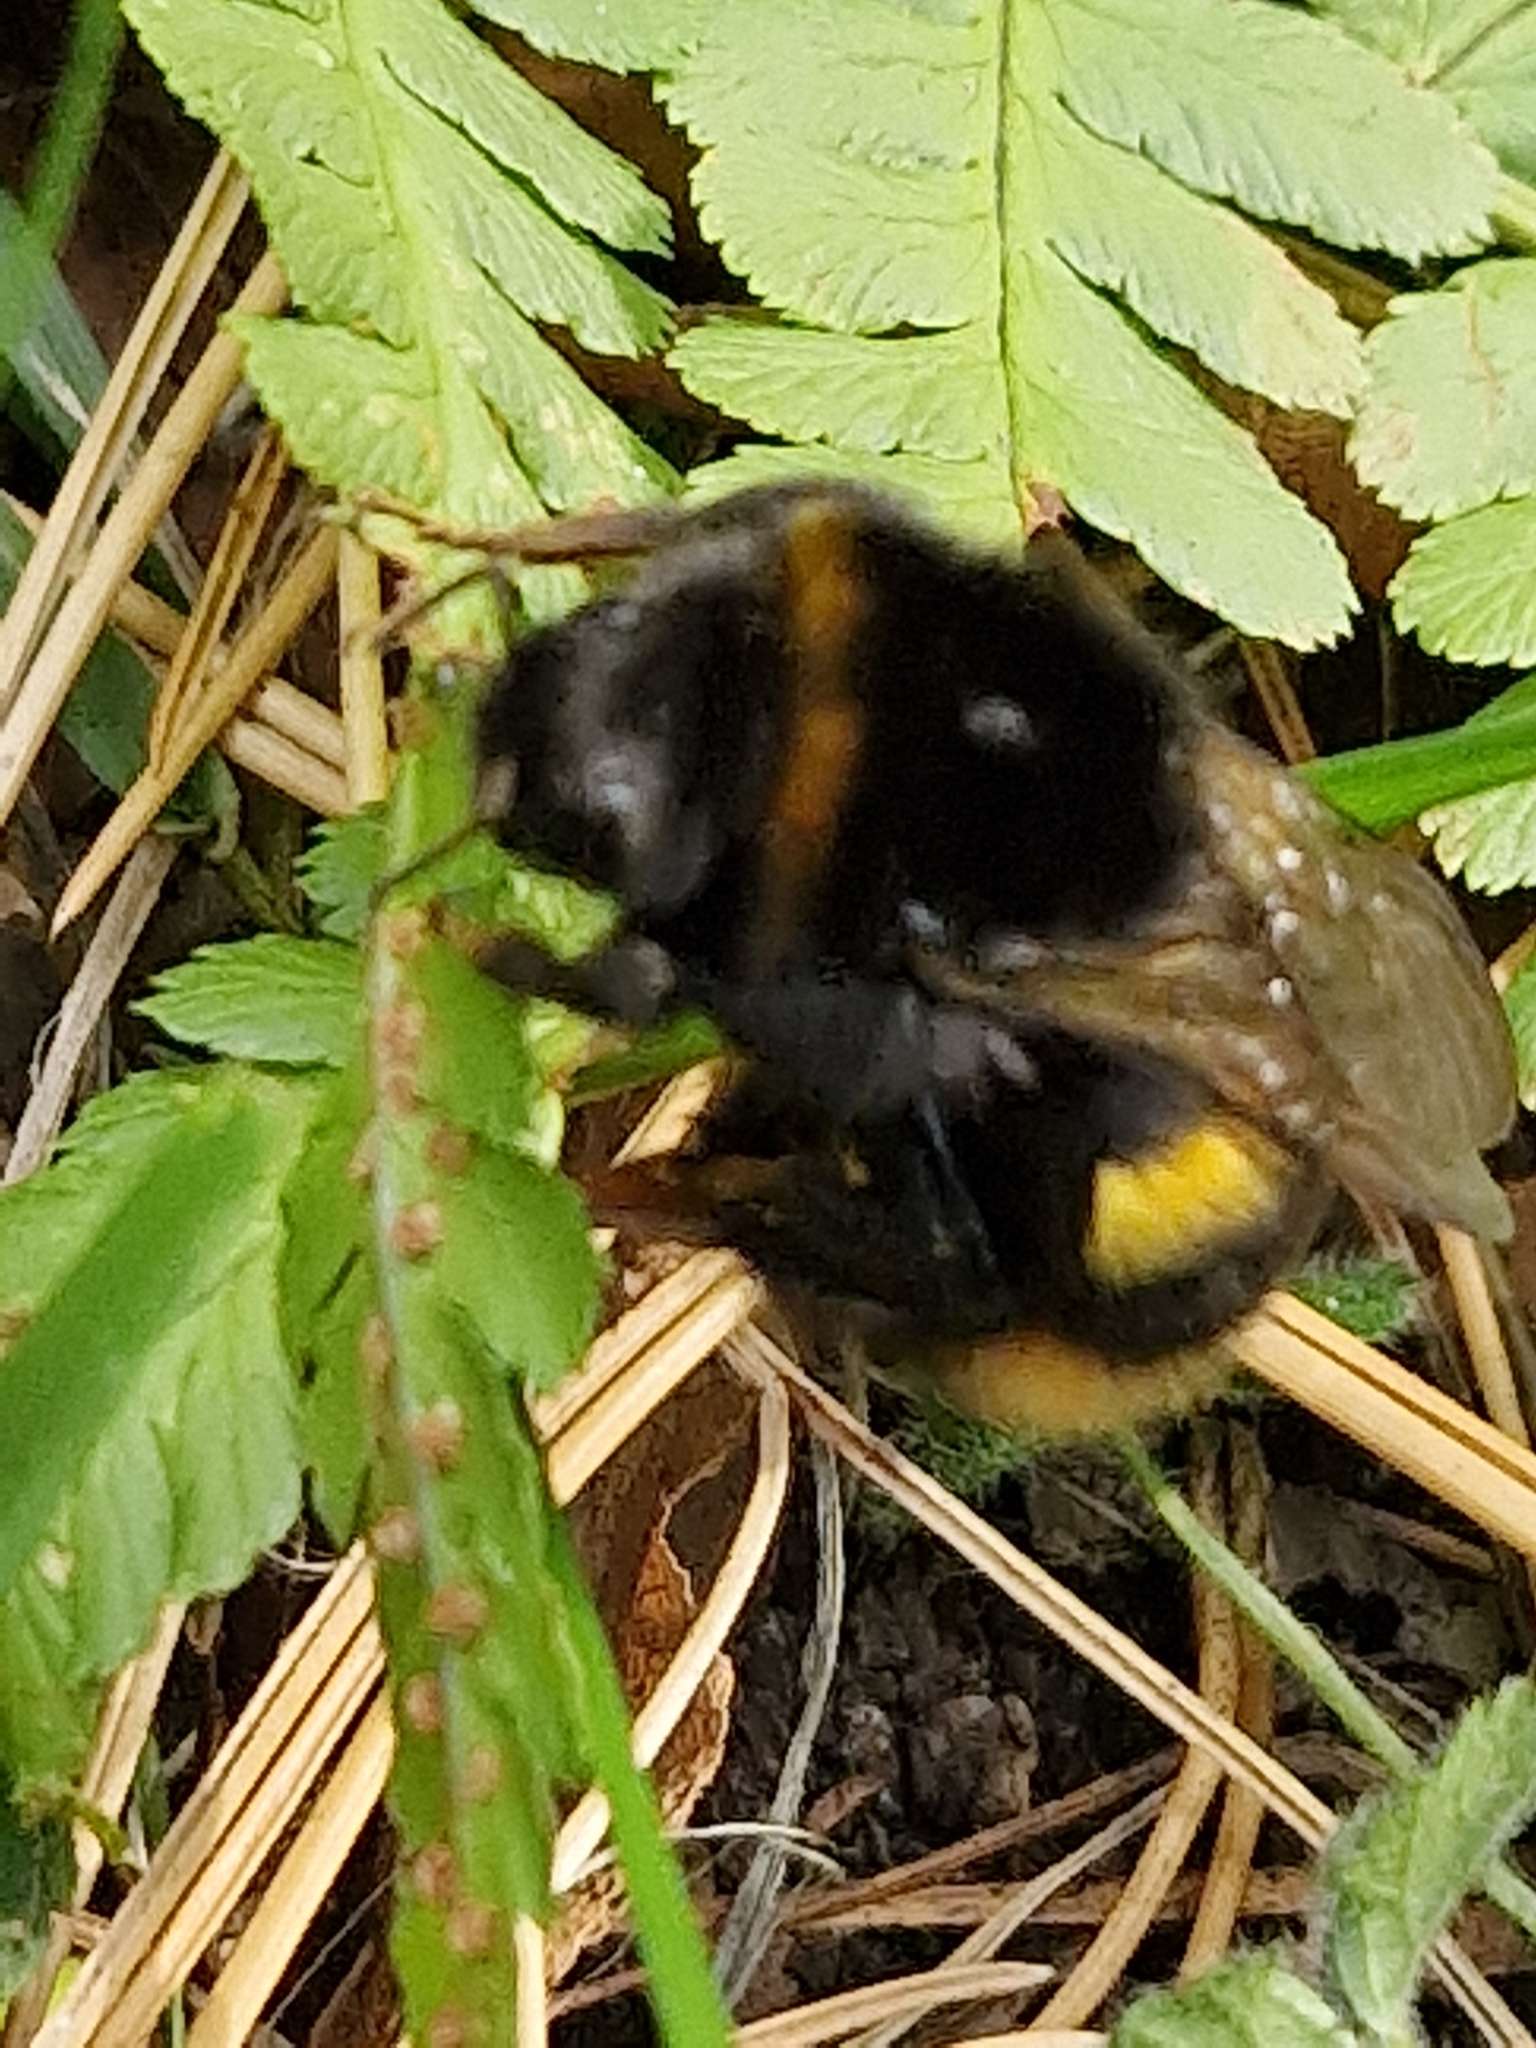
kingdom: Animalia
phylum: Arthropoda
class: Insecta
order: Hymenoptera
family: Apidae
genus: Bombus
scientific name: Bombus terrestris
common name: Buff-tailed bumblebee
